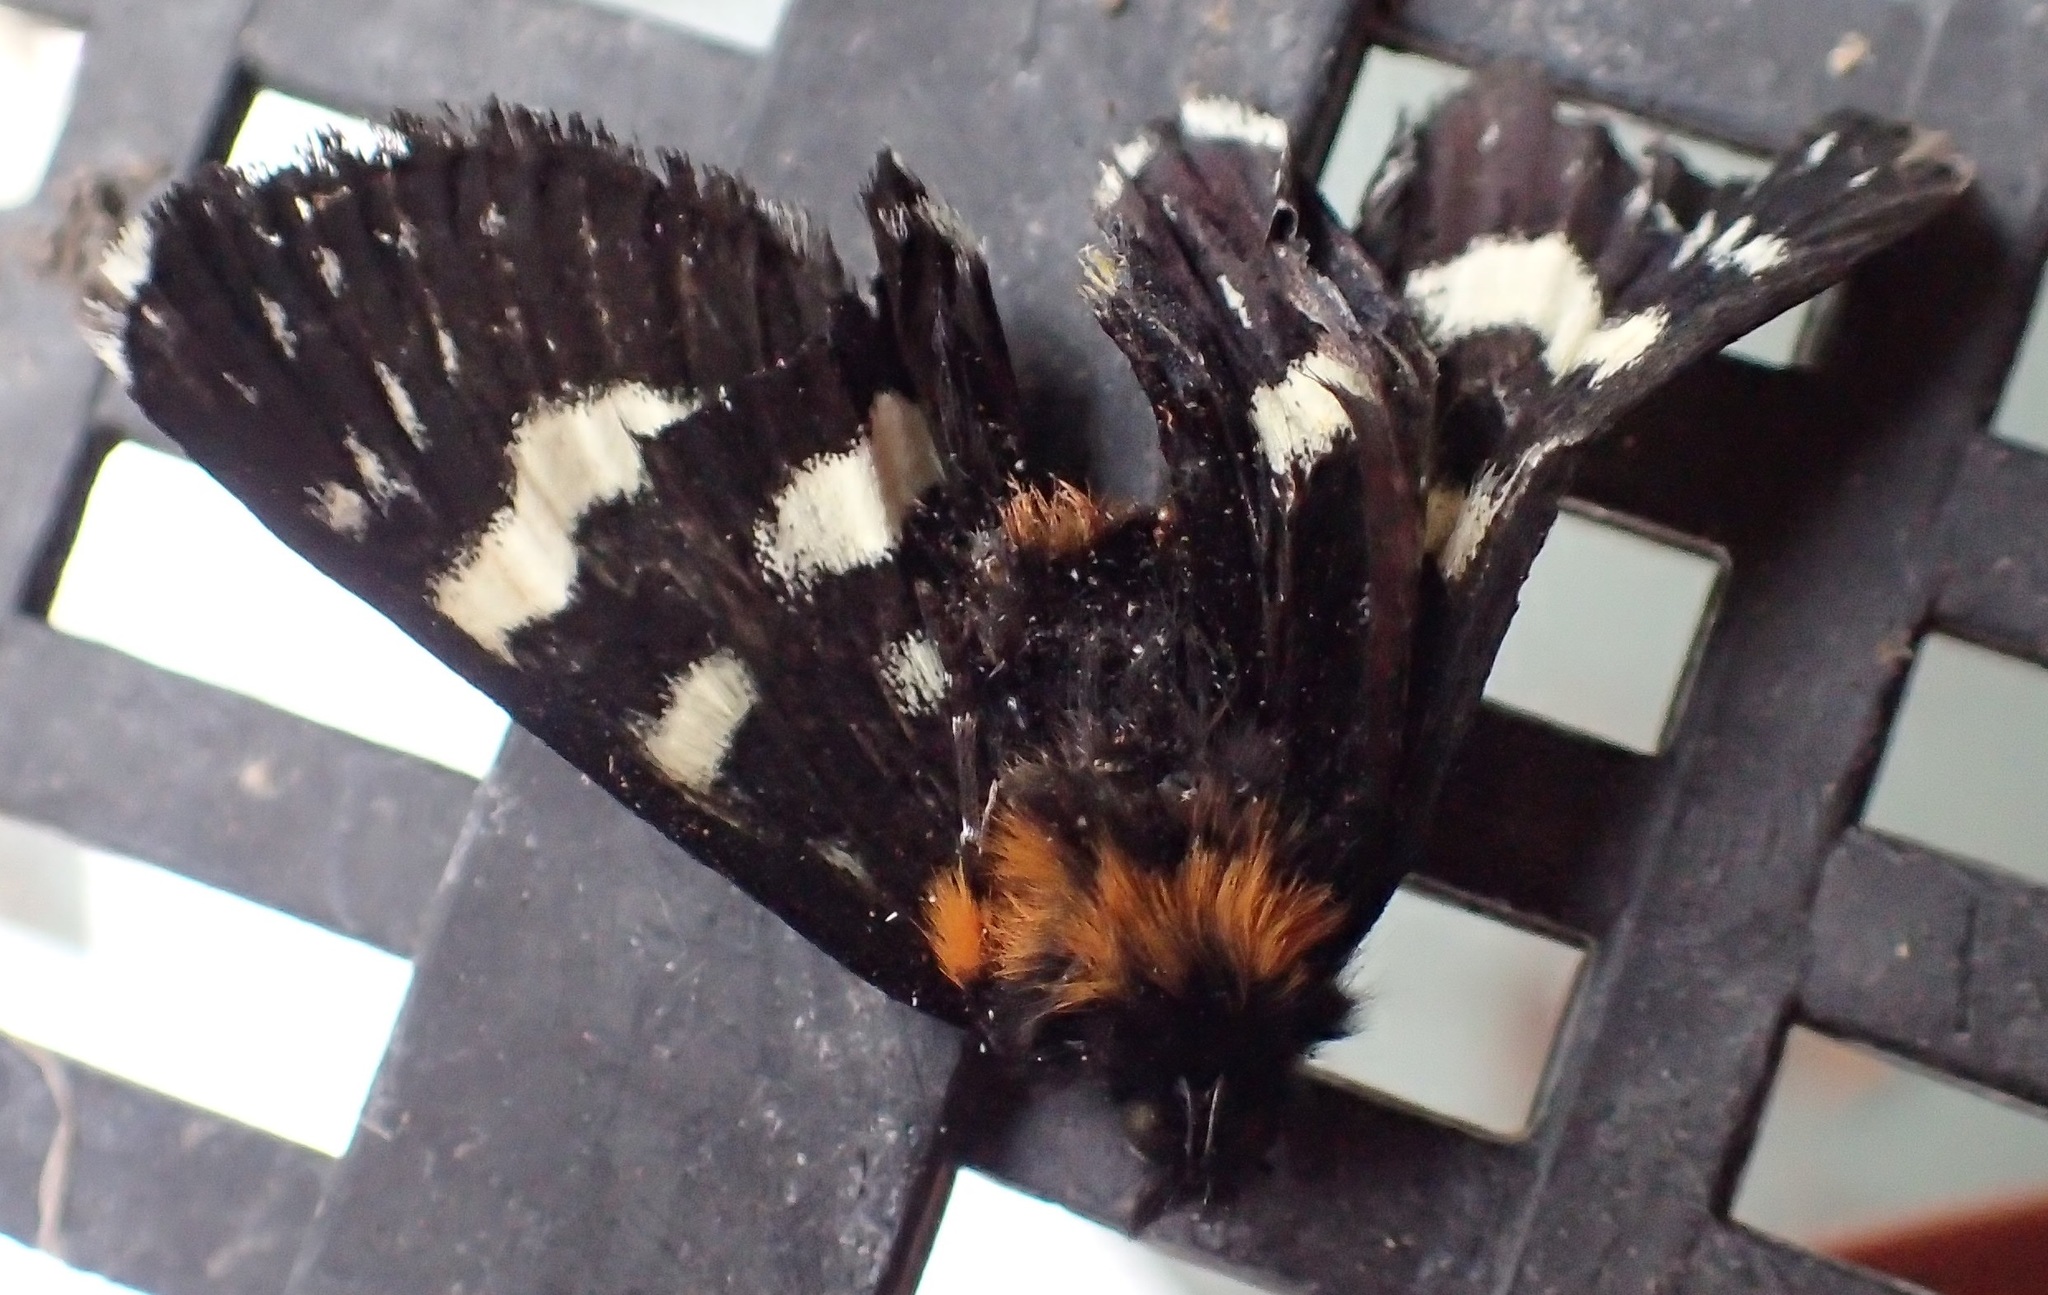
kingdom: Animalia
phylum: Arthropoda
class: Insecta
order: Lepidoptera
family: Noctuidae
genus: Phalaenoides
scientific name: Phalaenoides tristifica
